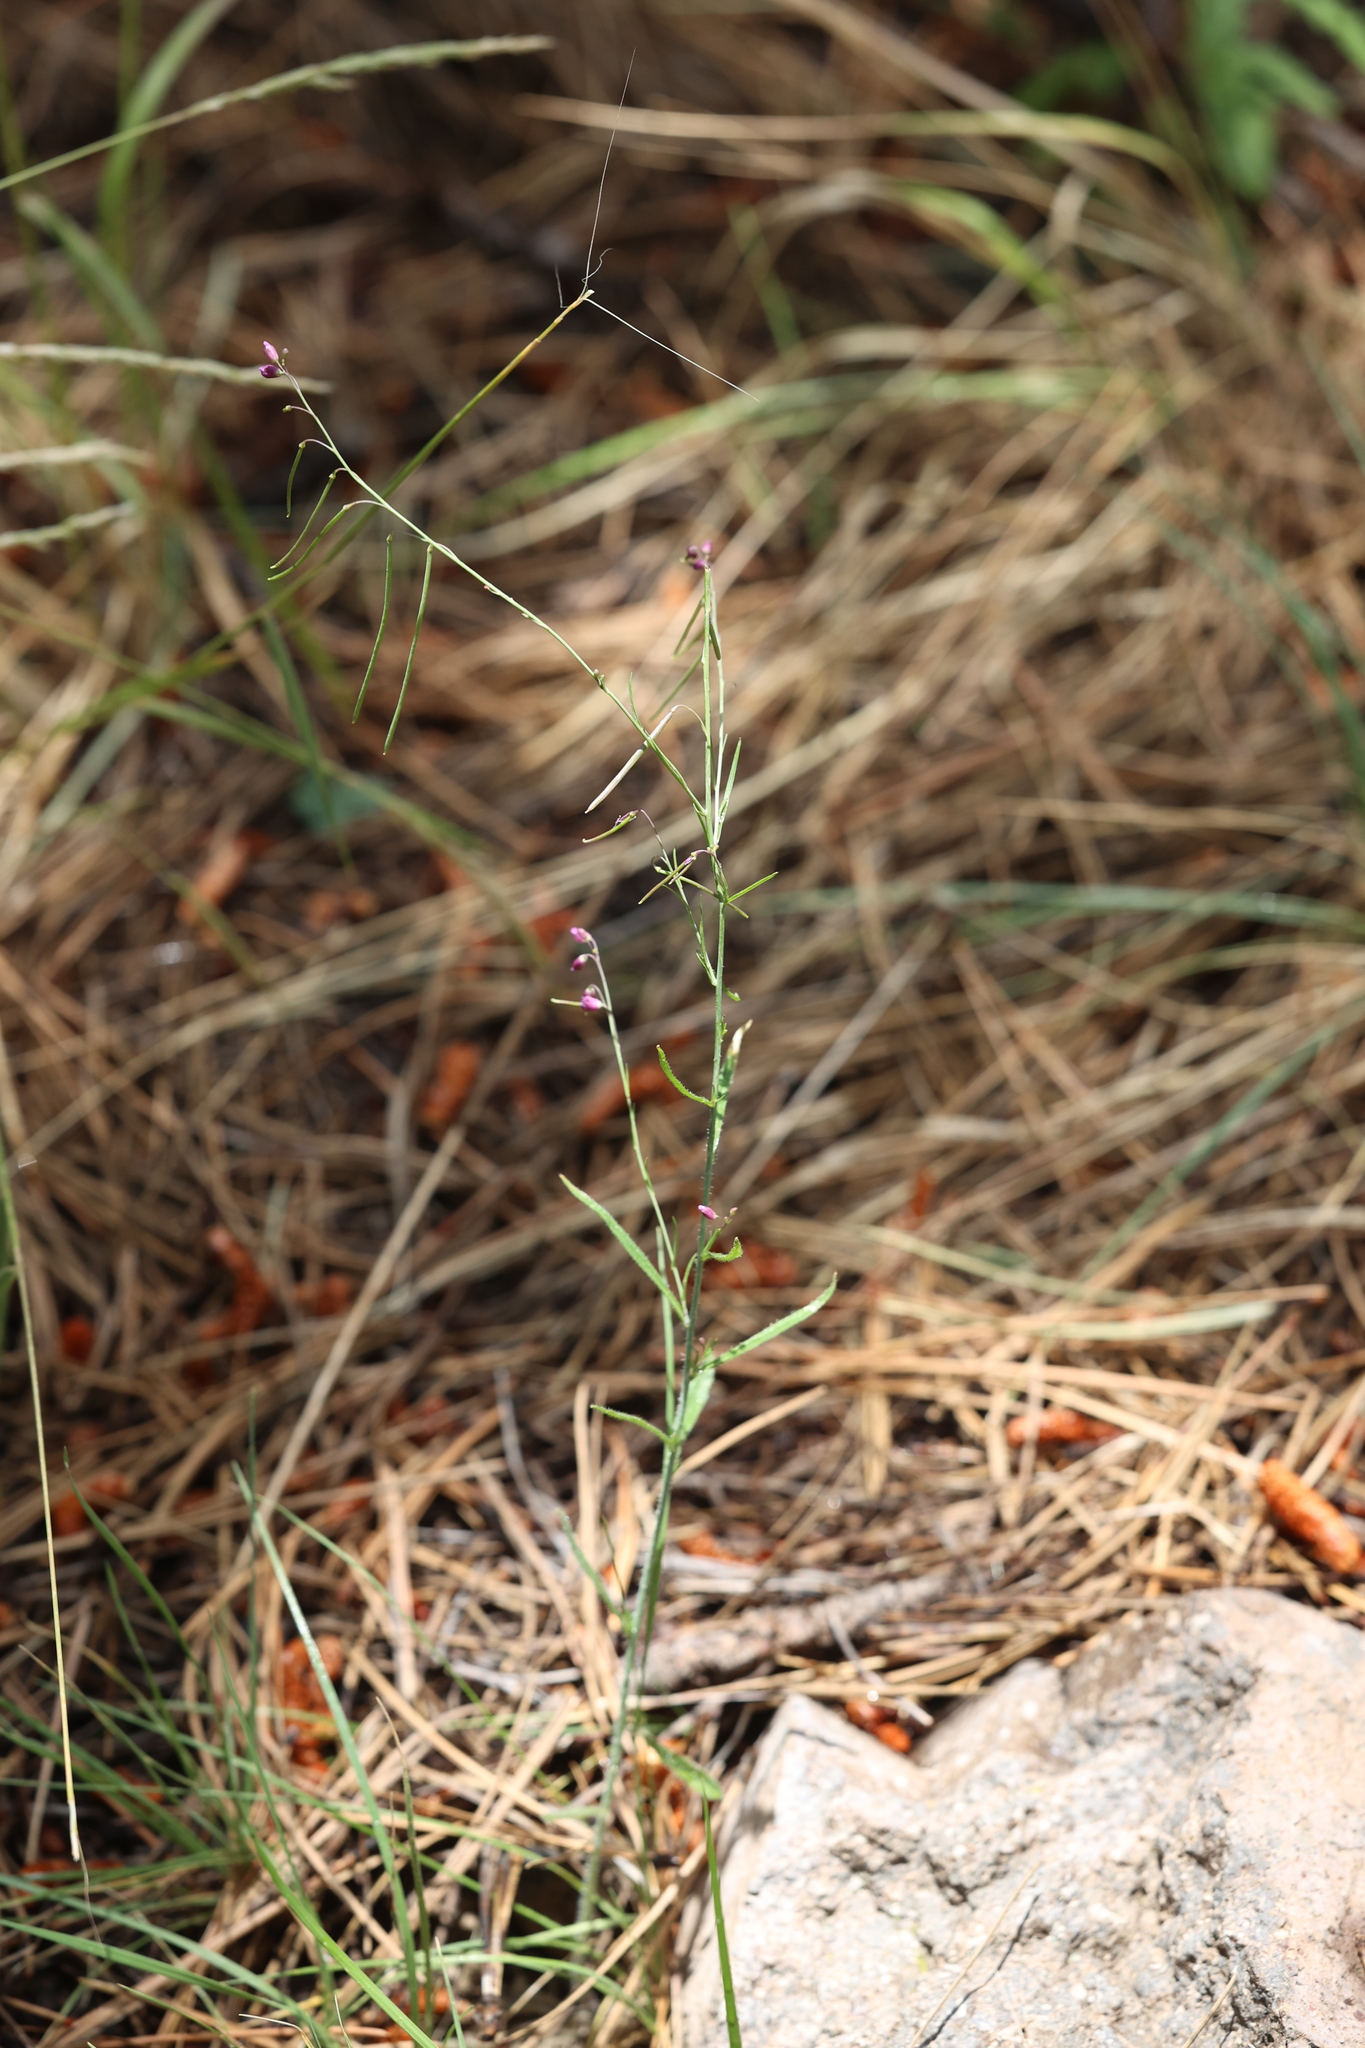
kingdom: Plantae
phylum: Tracheophyta
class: Magnoliopsida
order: Brassicales
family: Brassicaceae
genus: Pennellia
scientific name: Pennellia longifolia
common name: Longleaf mock thelypody
